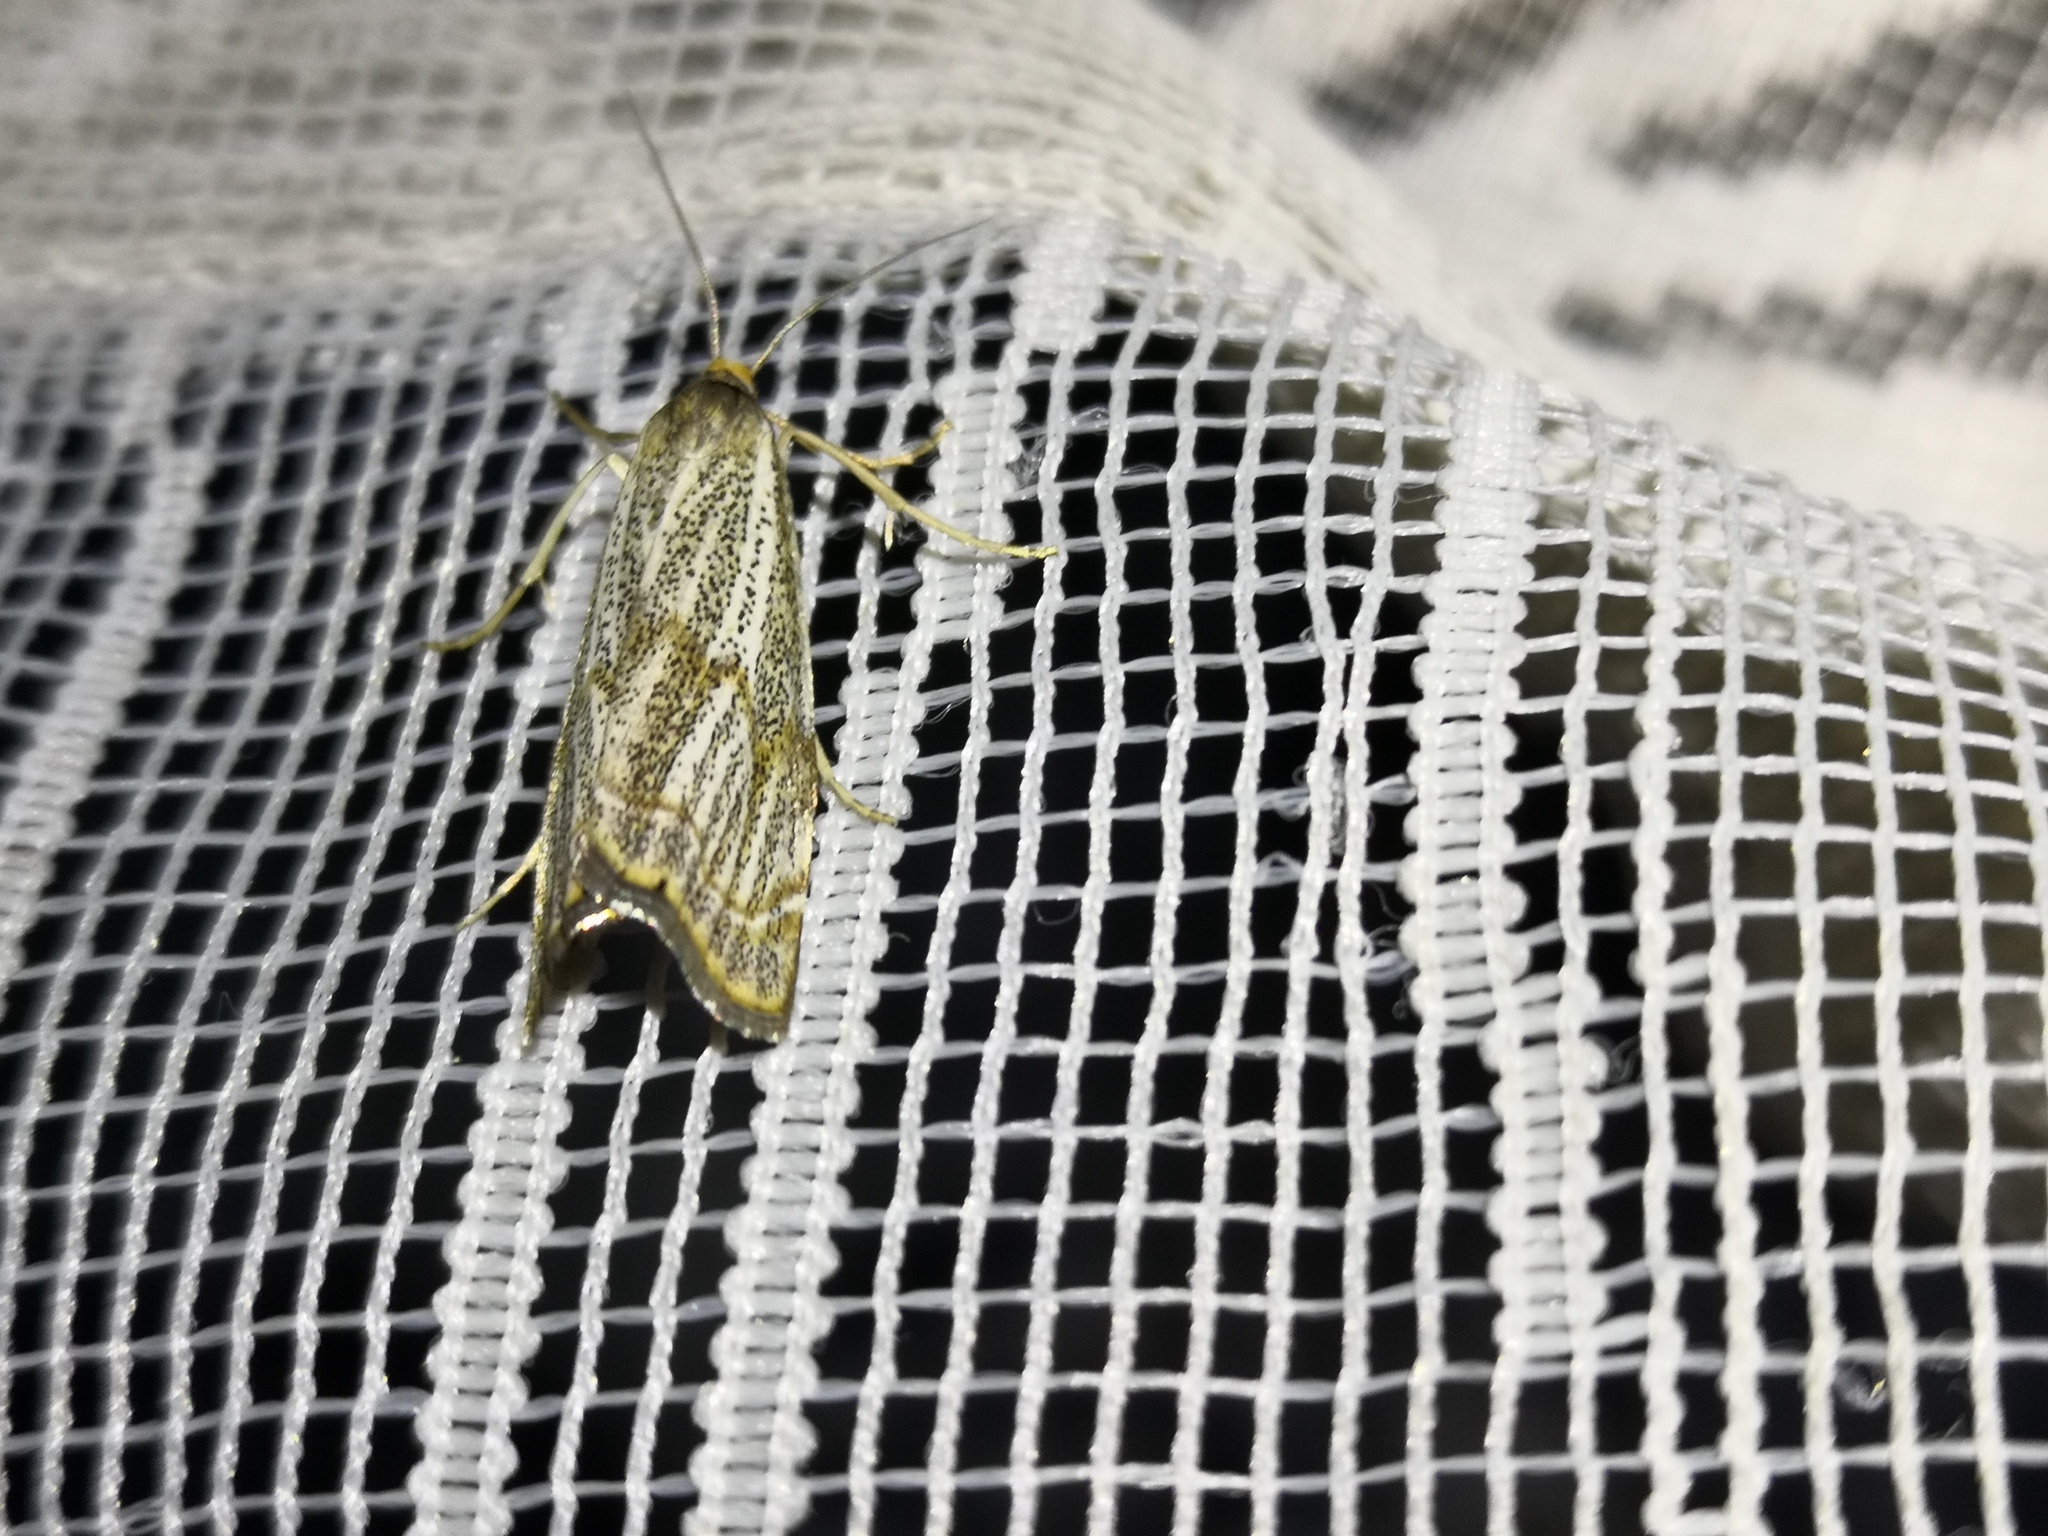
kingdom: Animalia
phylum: Arthropoda
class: Insecta
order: Lepidoptera
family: Crambidae
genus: Thisanotia
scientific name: Thisanotia chrysonuchella
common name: Powdered grass-veneer
